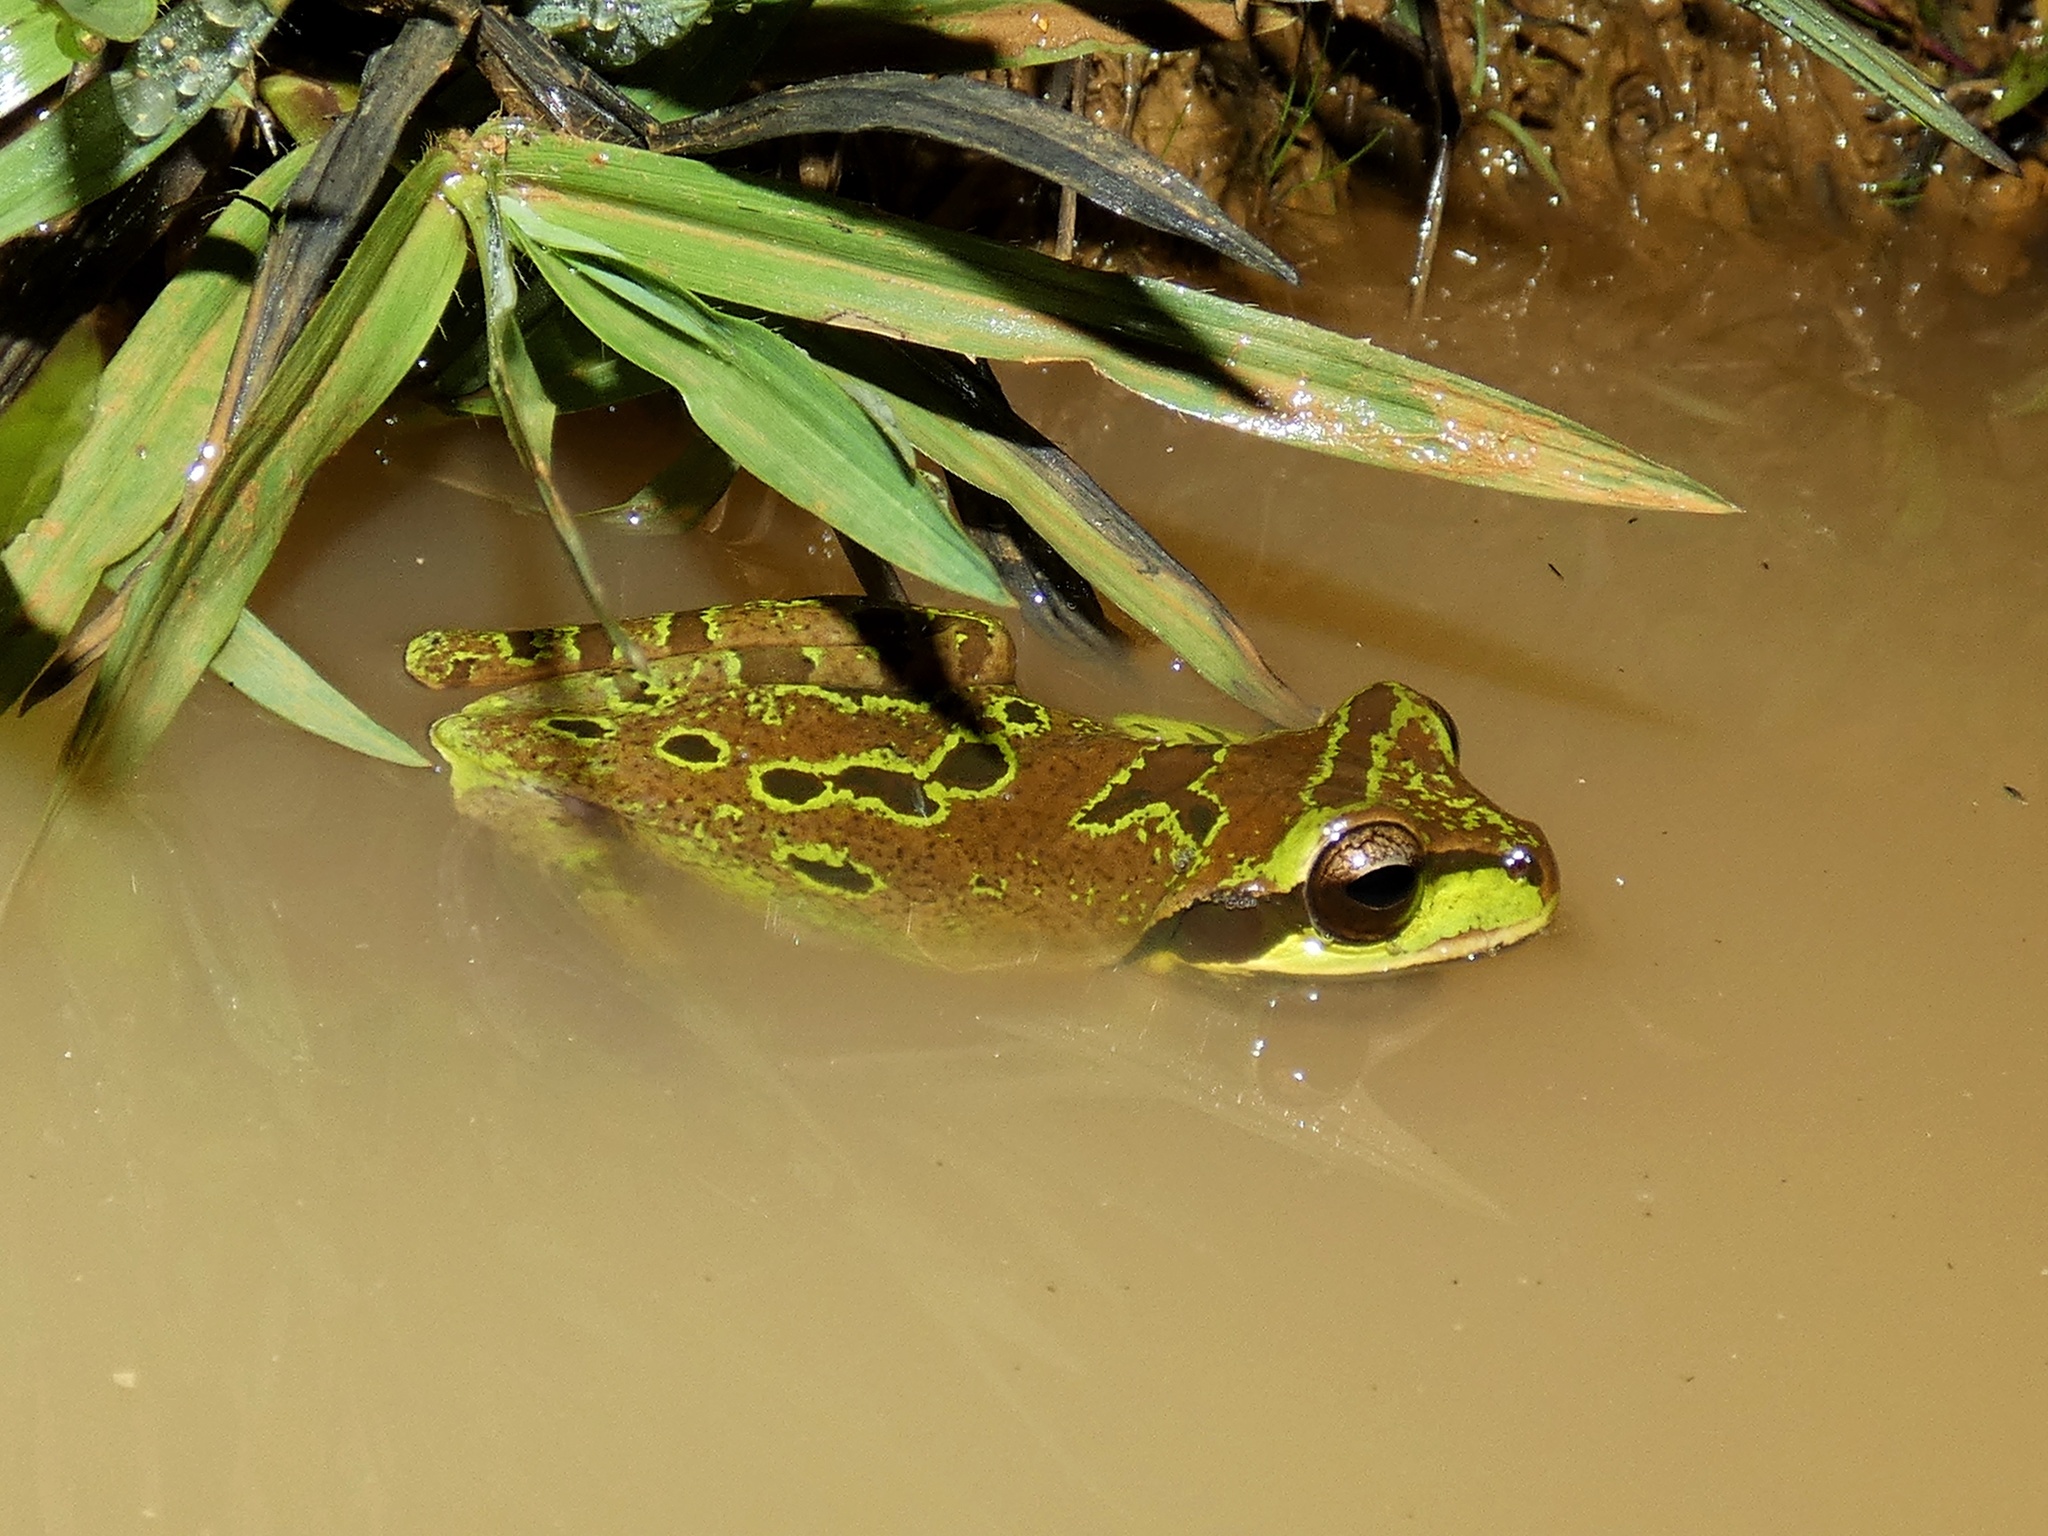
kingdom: Animalia
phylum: Chordata
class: Amphibia
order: Anura
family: Hylidae
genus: Smilisca
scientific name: Smilisca phaeota
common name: Central american smilisca
